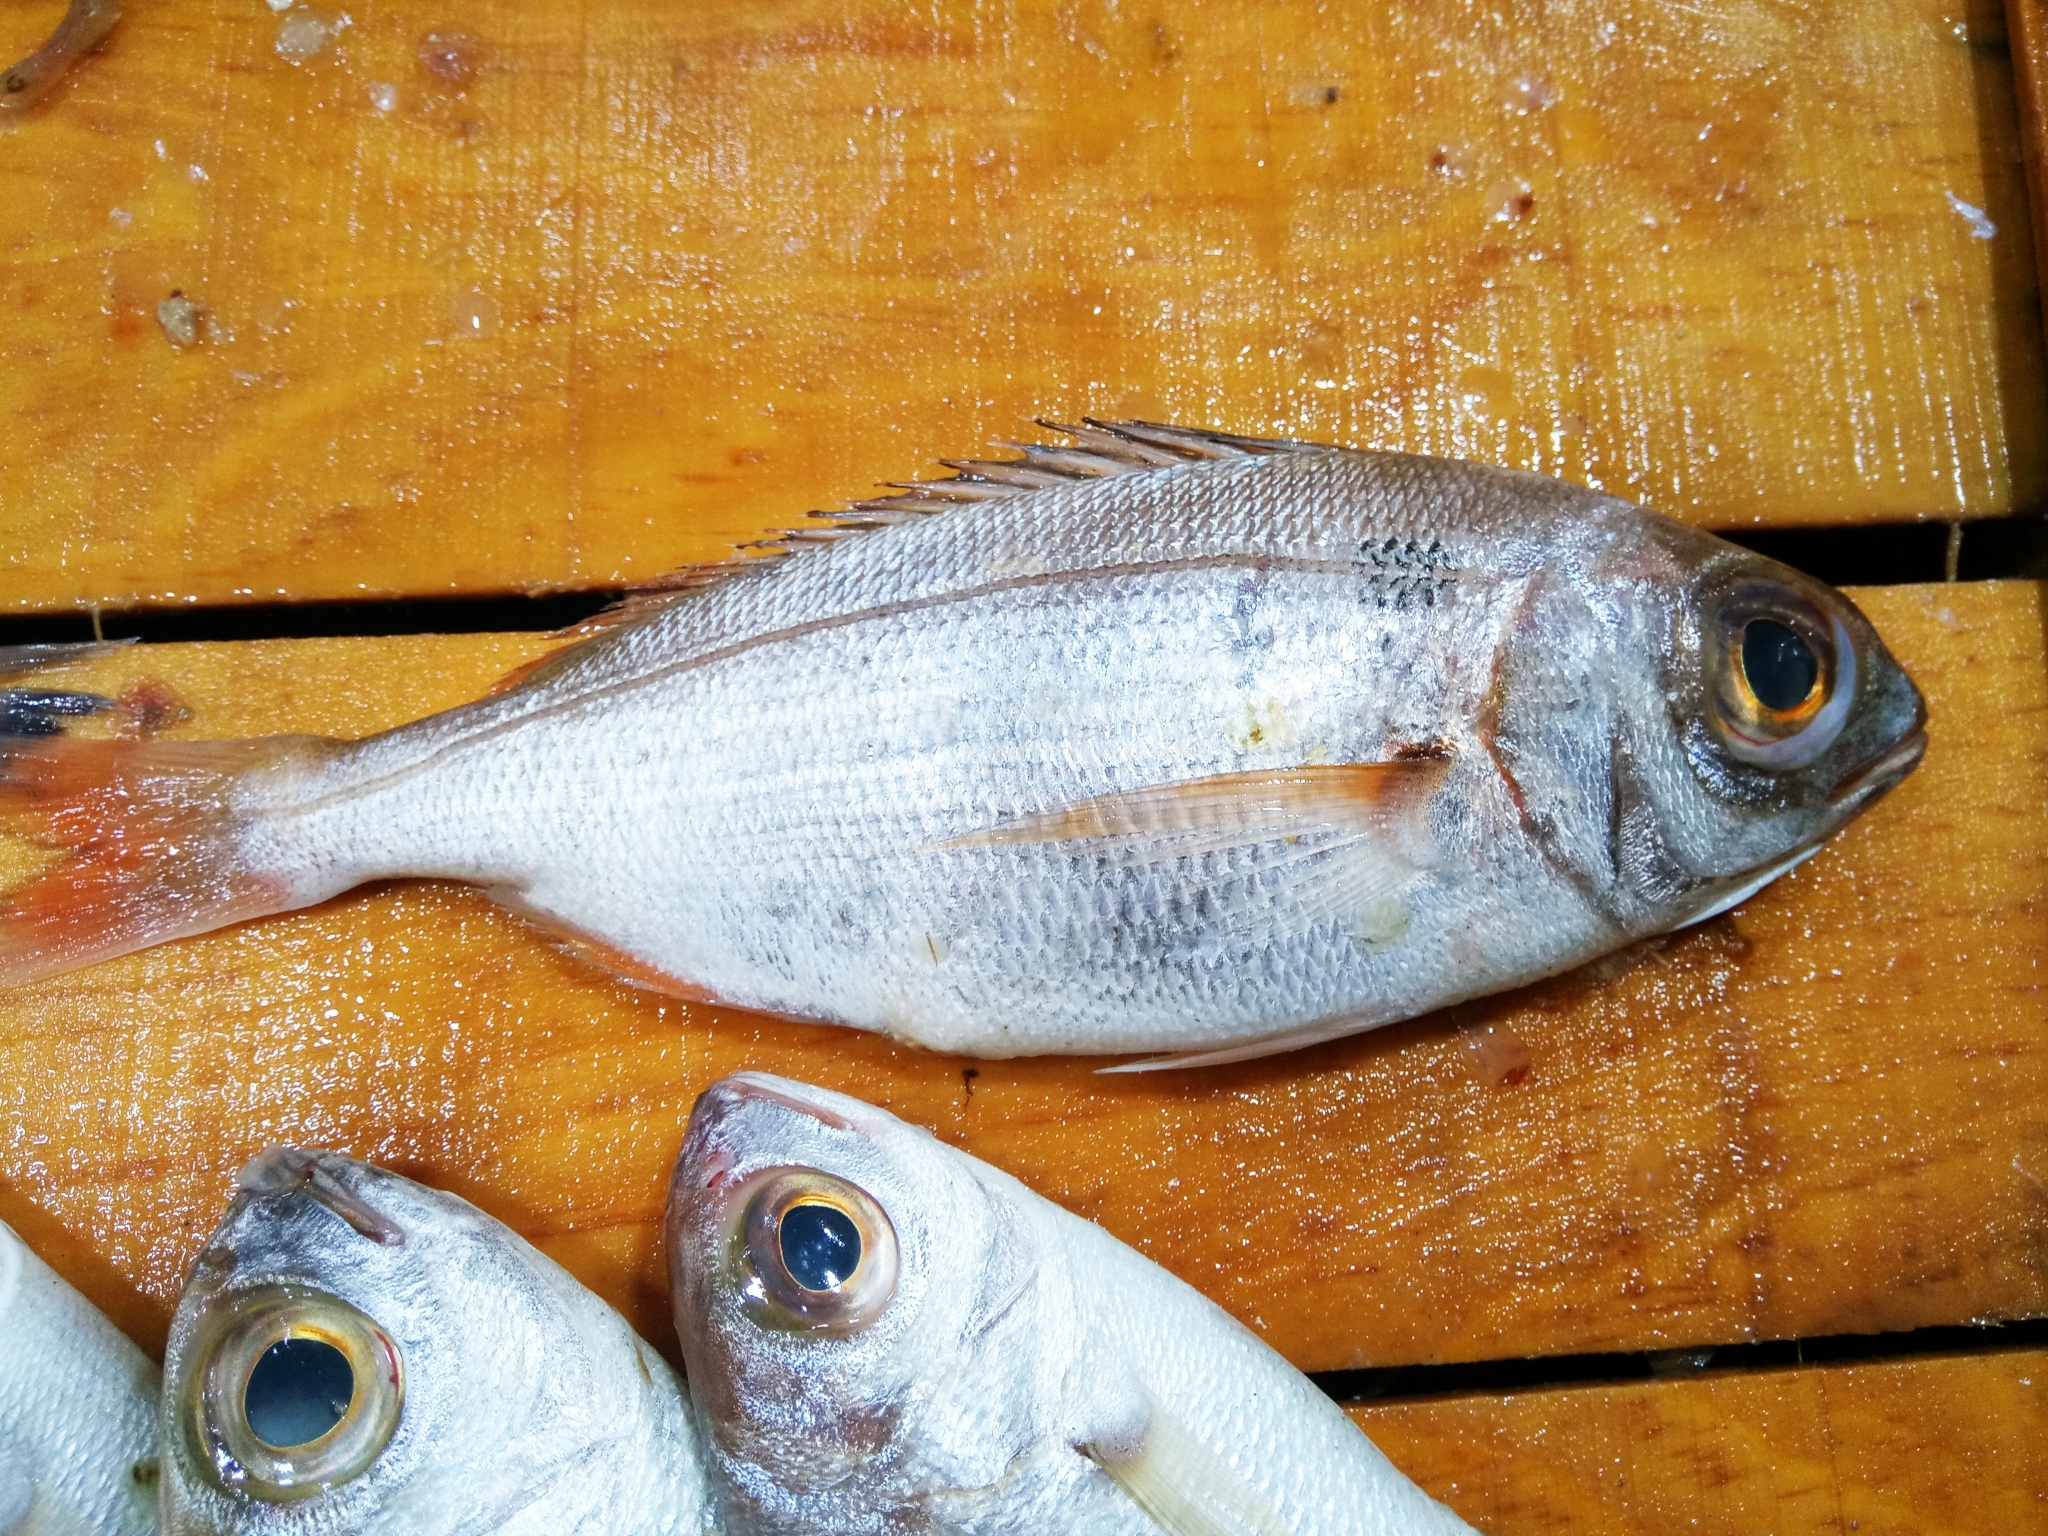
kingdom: Animalia
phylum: Chordata
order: Perciformes
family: Sparidae
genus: Pagellus
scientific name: Pagellus bogaraveo
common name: Red sea-bream
